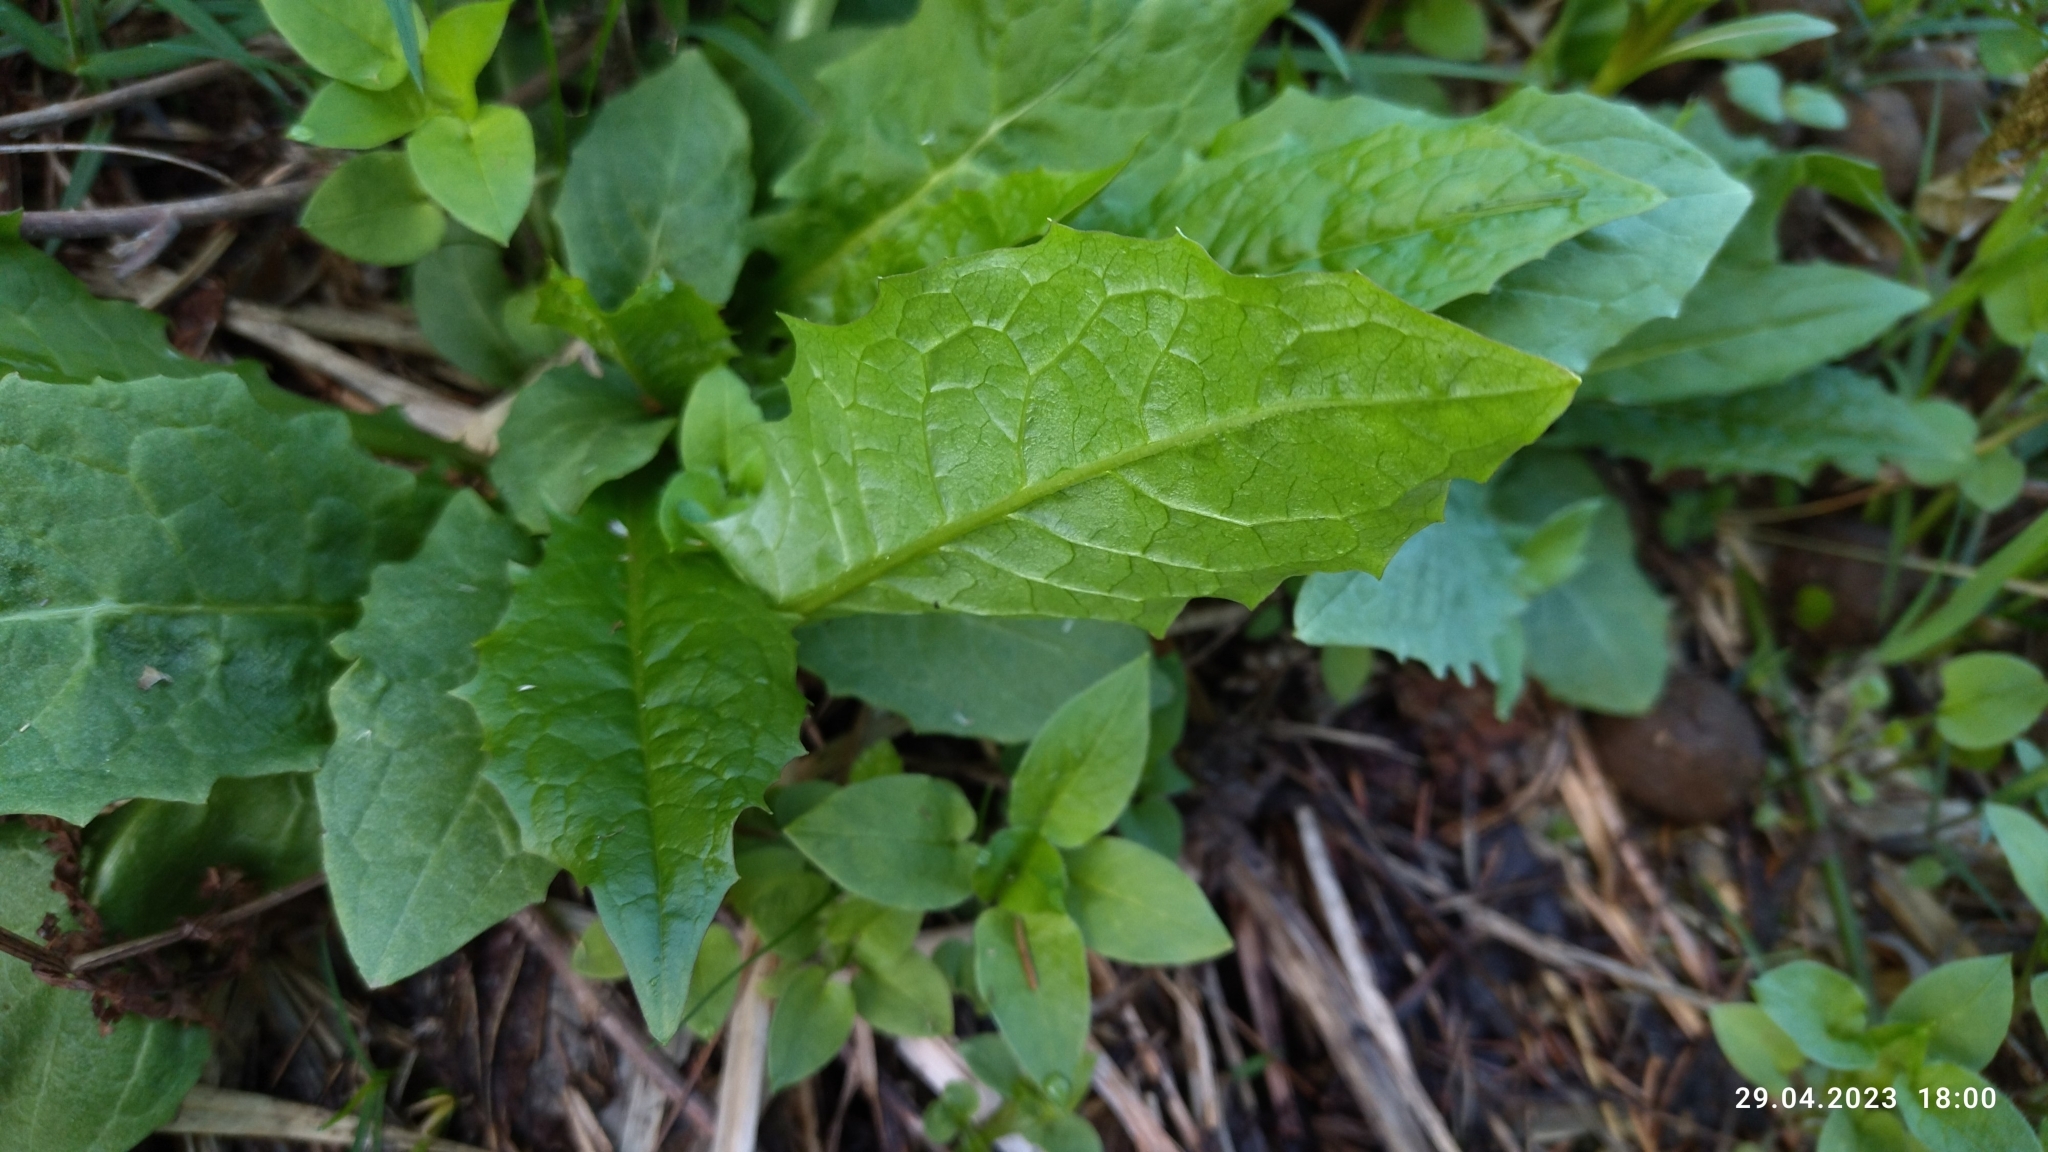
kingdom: Plantae
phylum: Tracheophyta
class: Magnoliopsida
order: Asterales
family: Asteraceae
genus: Crepis
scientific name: Crepis paludosa
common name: Marsh hawk's-beard
